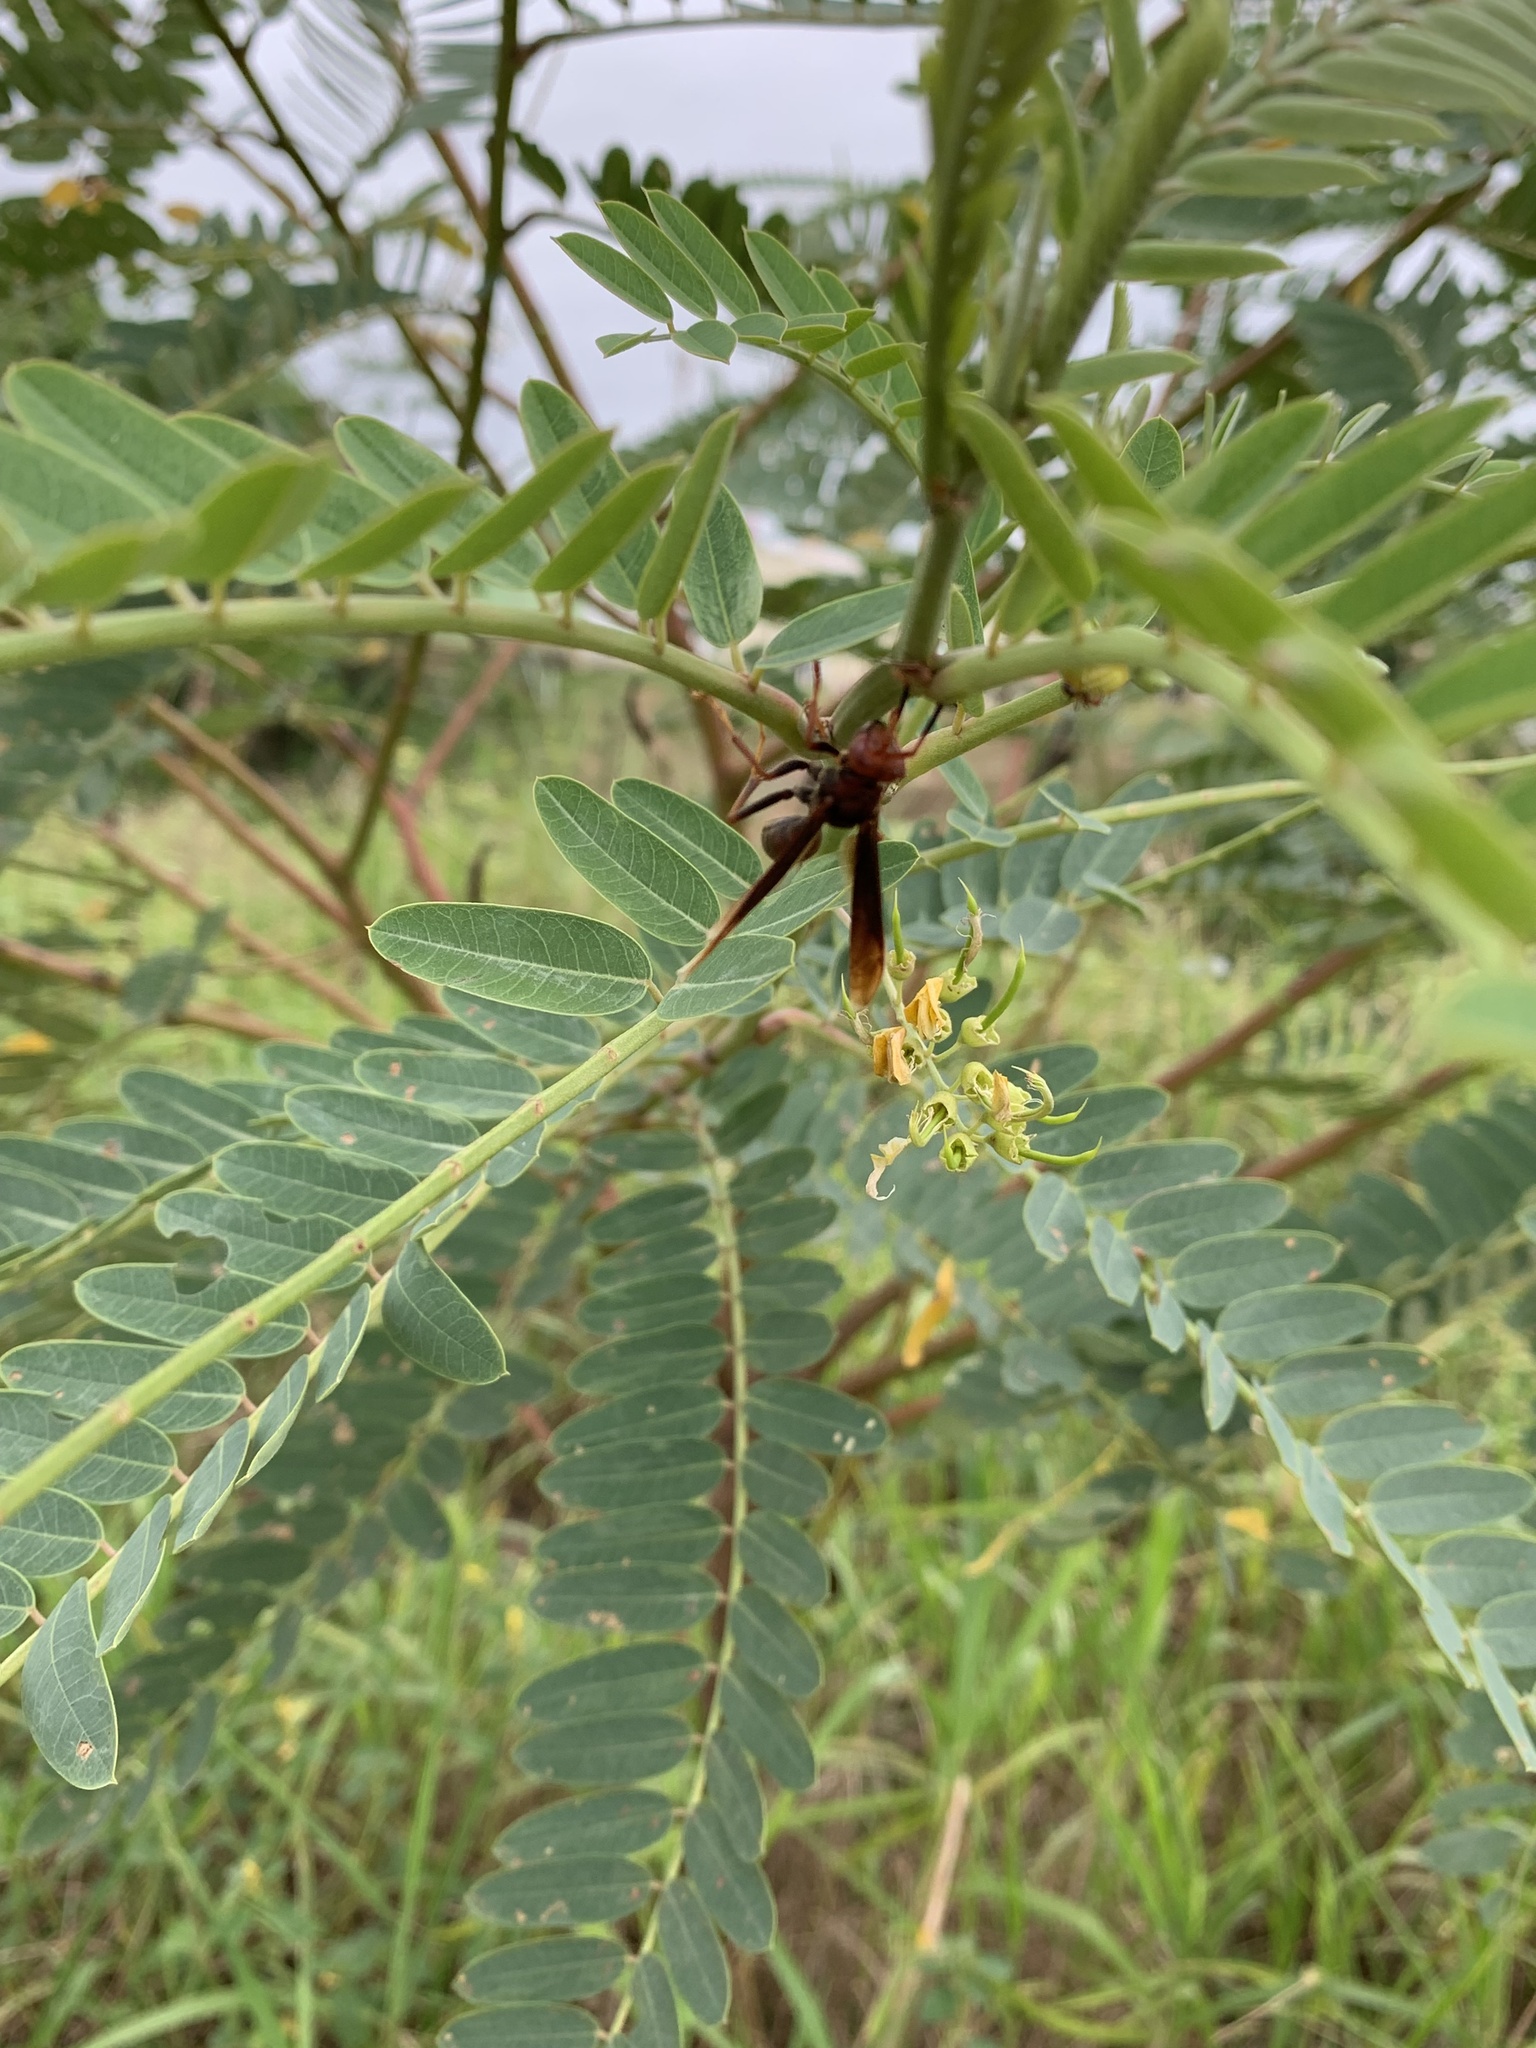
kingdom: Animalia
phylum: Arthropoda
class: Insecta
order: Hymenoptera
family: Eumenidae
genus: Polistes
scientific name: Polistes lanio
